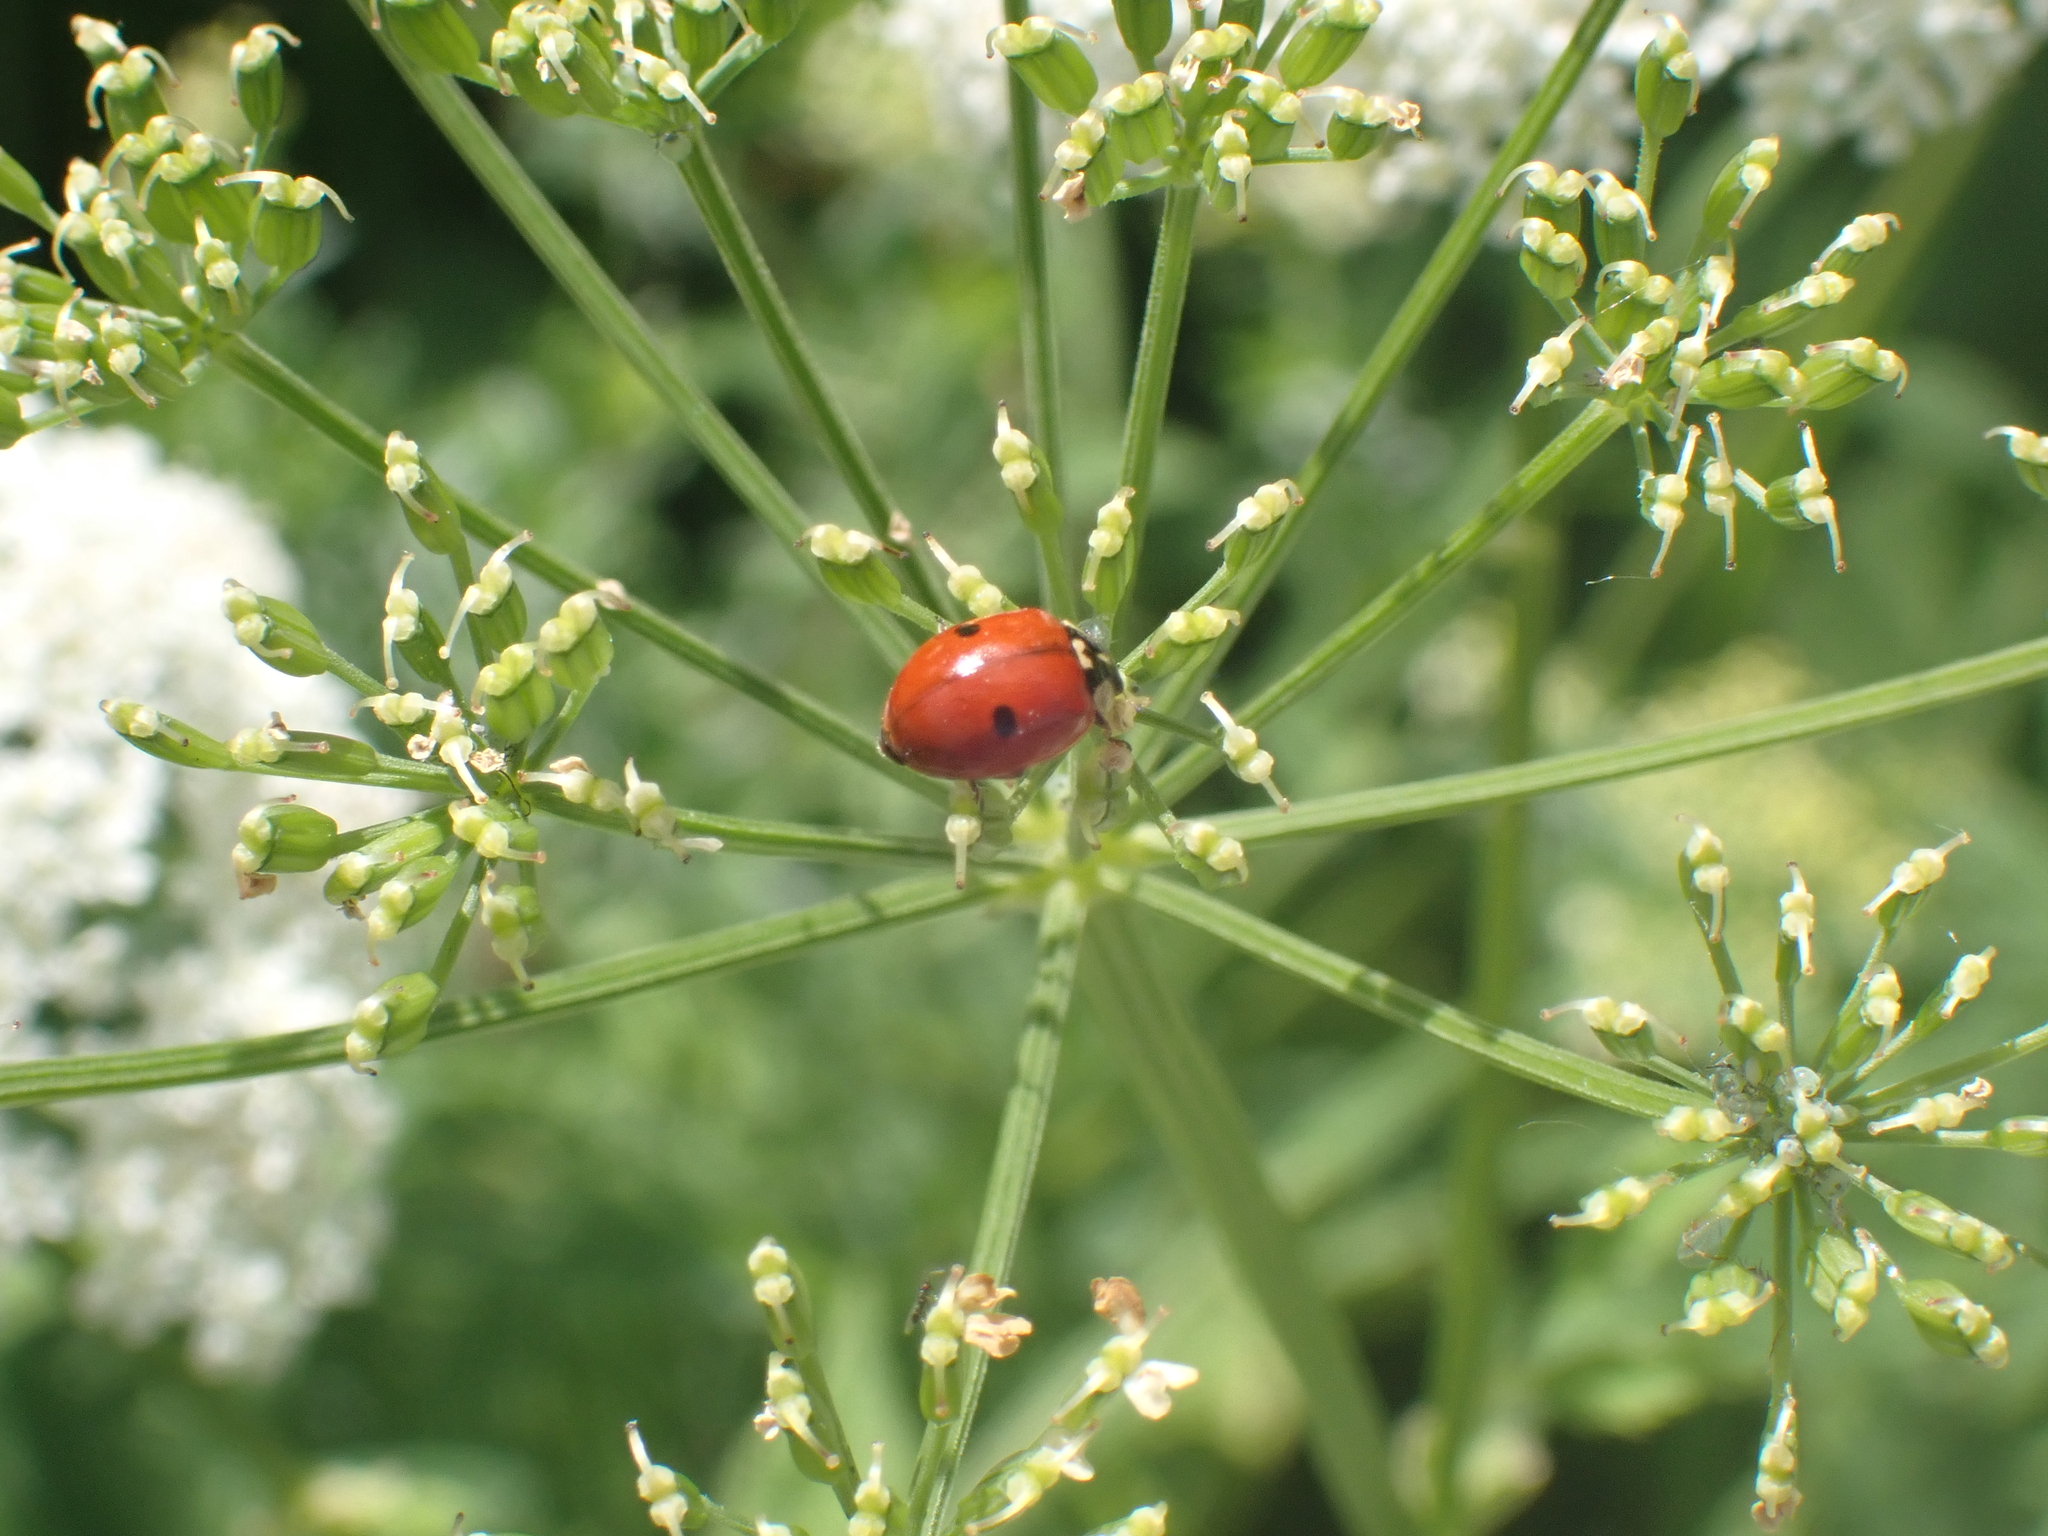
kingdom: Animalia
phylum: Arthropoda
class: Insecta
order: Coleoptera
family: Coccinellidae
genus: Adalia
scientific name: Adalia bipunctata
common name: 2-spot ladybird
